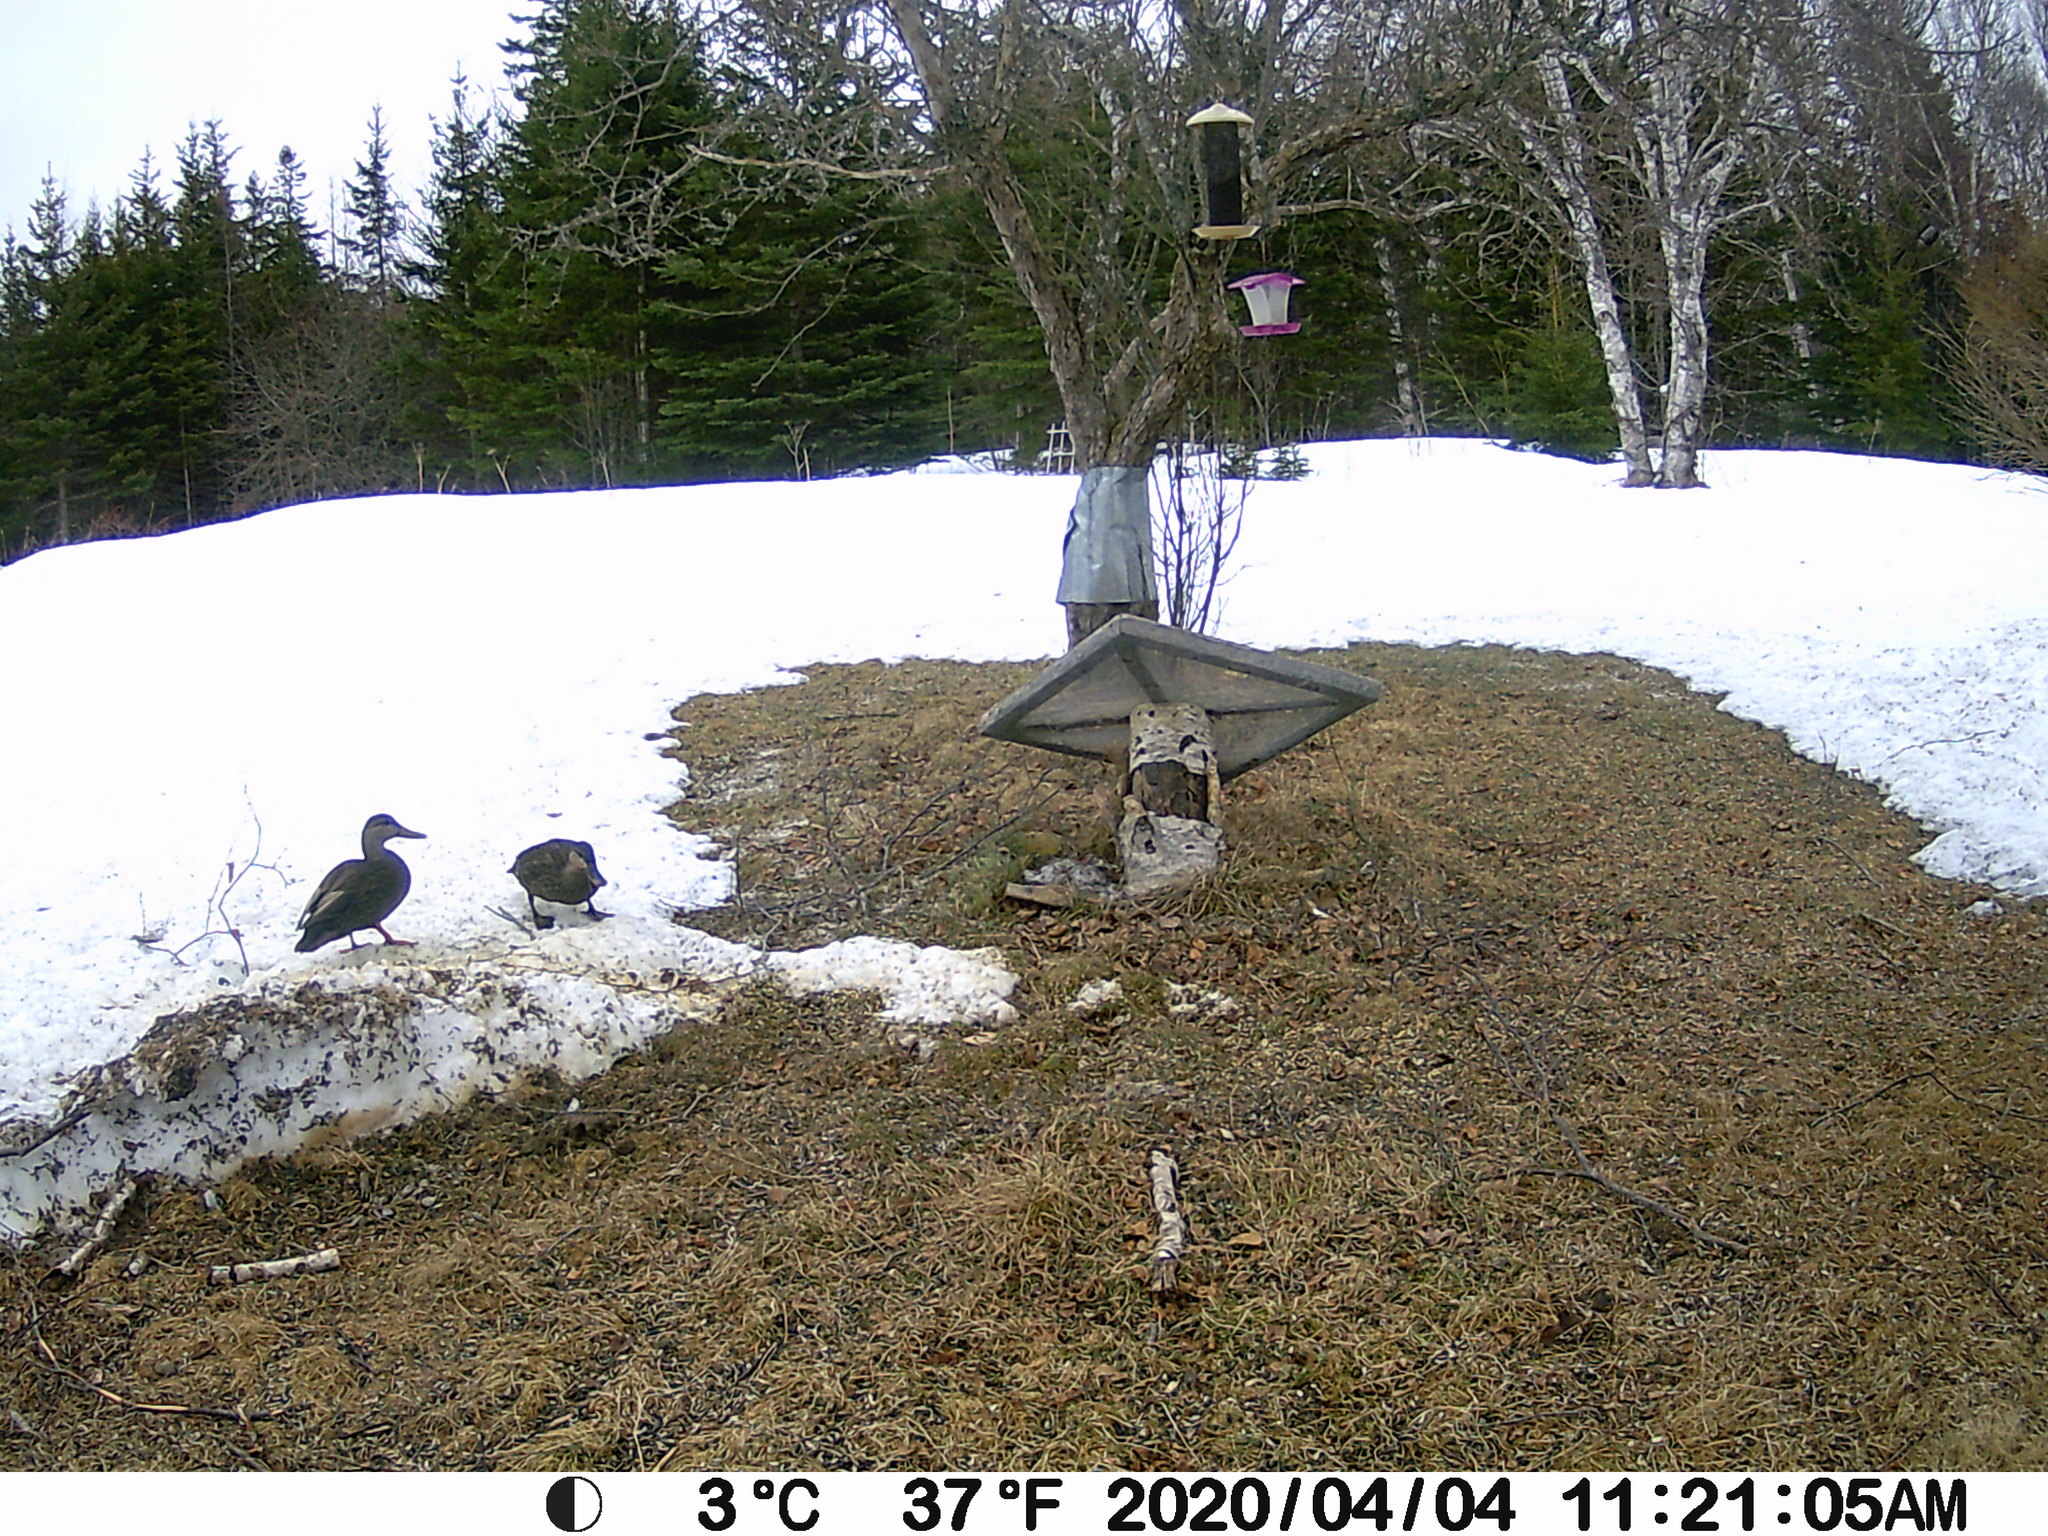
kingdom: Animalia
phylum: Chordata
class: Aves
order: Anseriformes
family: Anatidae
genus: Anas
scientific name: Anas rubripes
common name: American black duck
